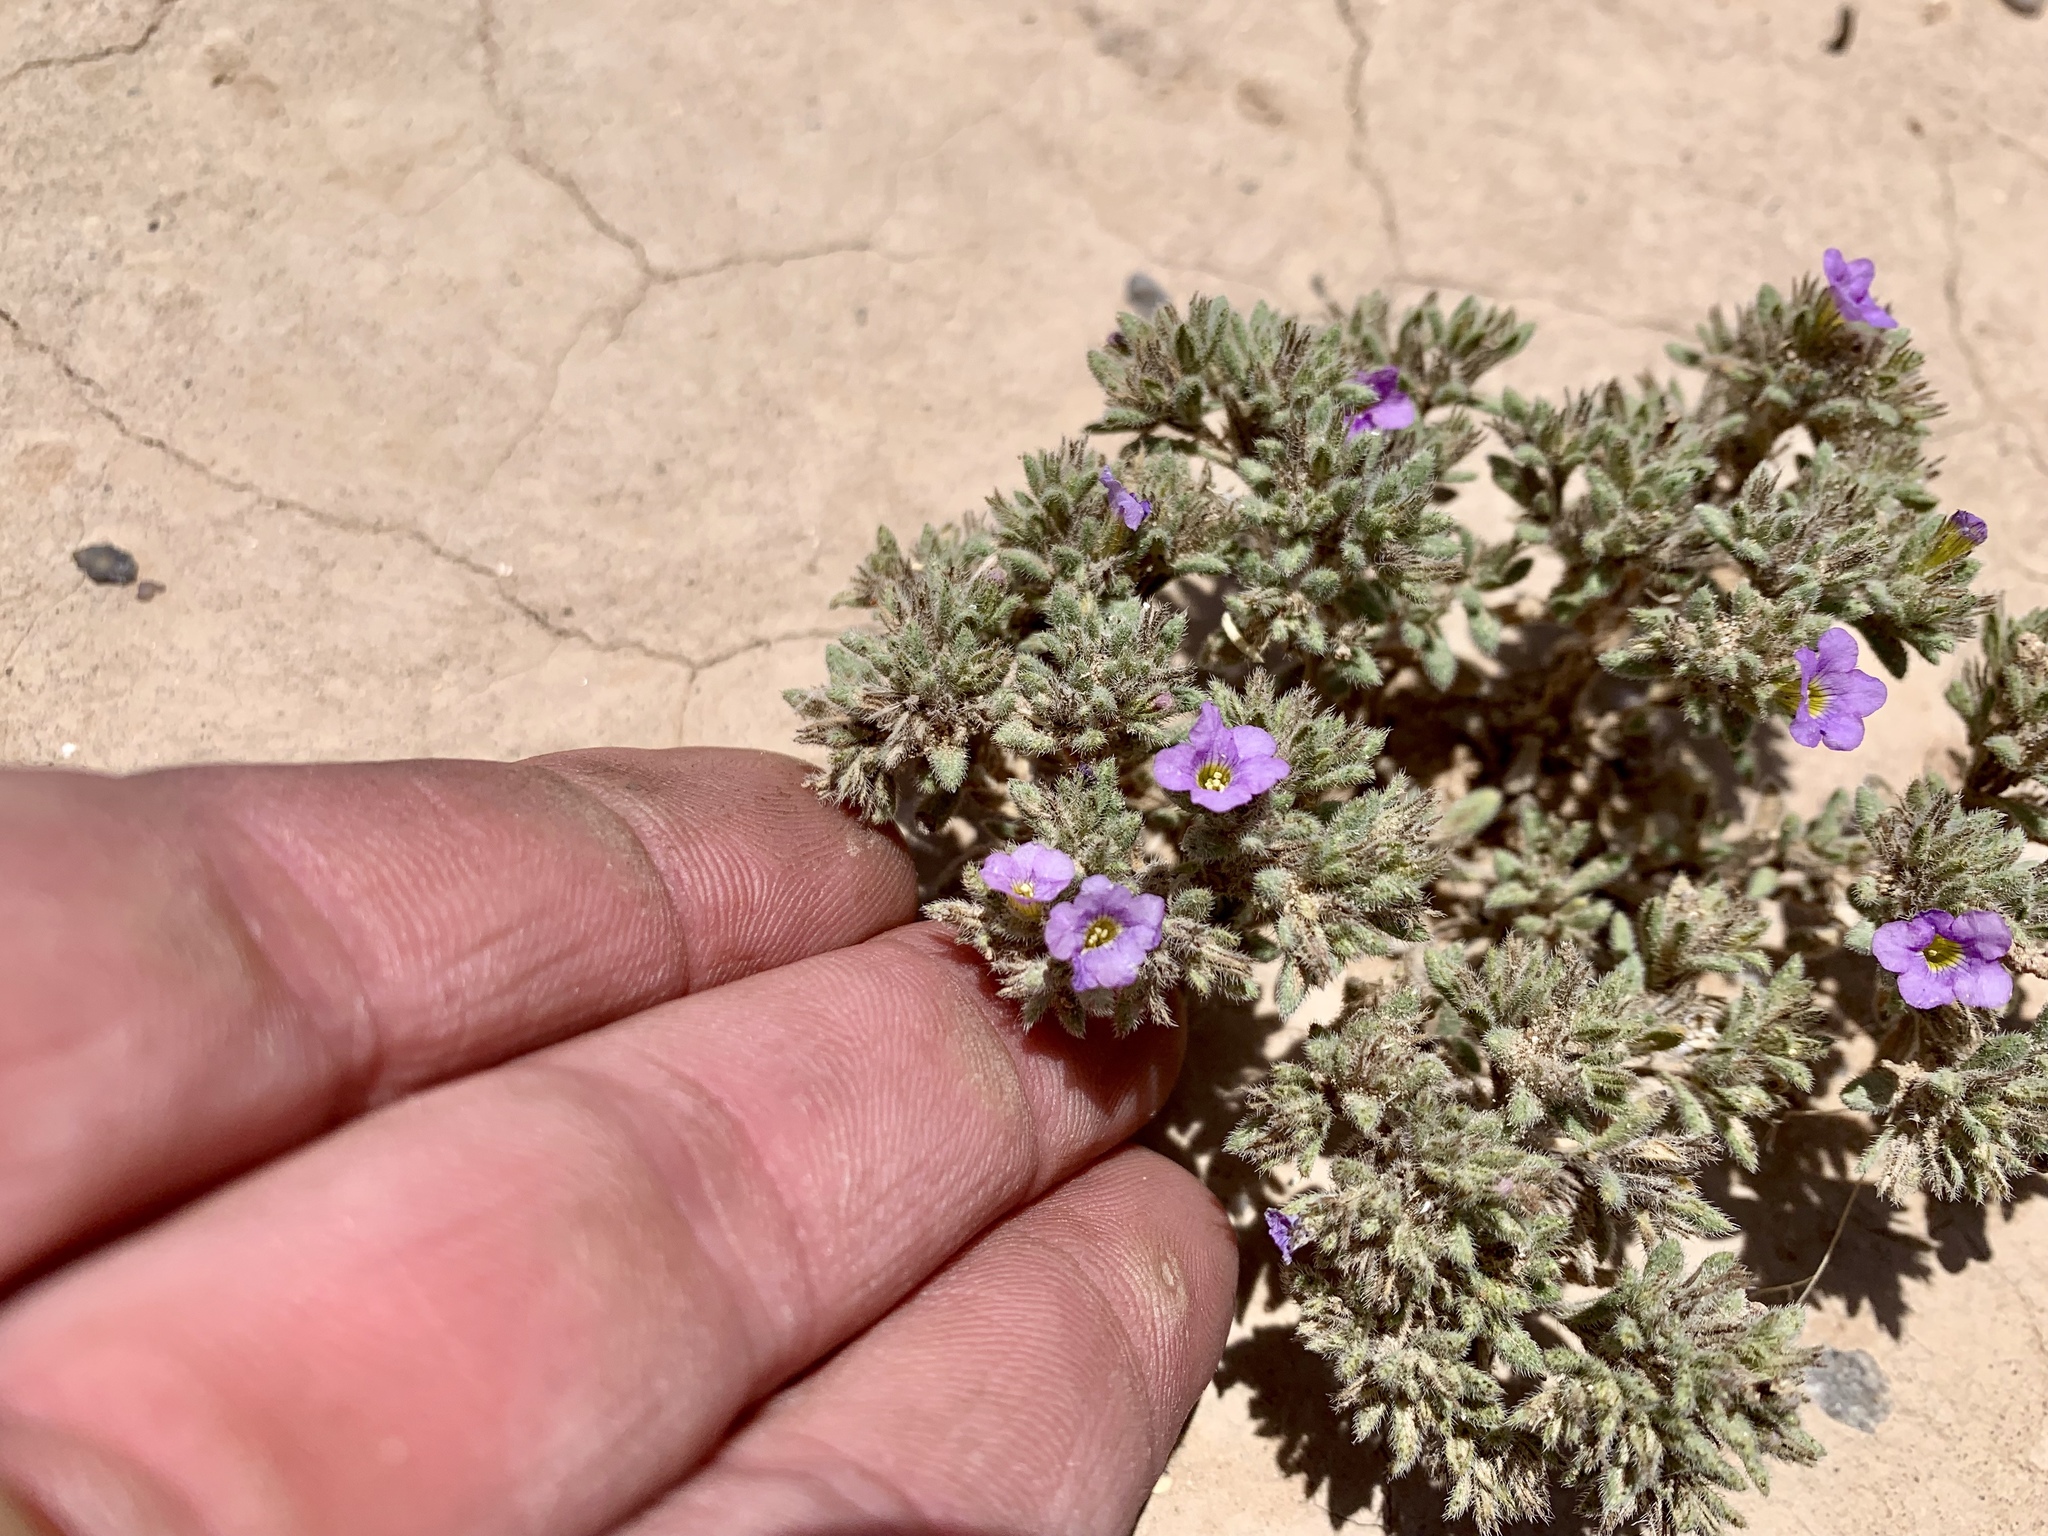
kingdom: Plantae
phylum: Tracheophyta
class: Magnoliopsida
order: Boraginales
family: Namaceae
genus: Nama
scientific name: Nama hispida
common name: Bristly nama
